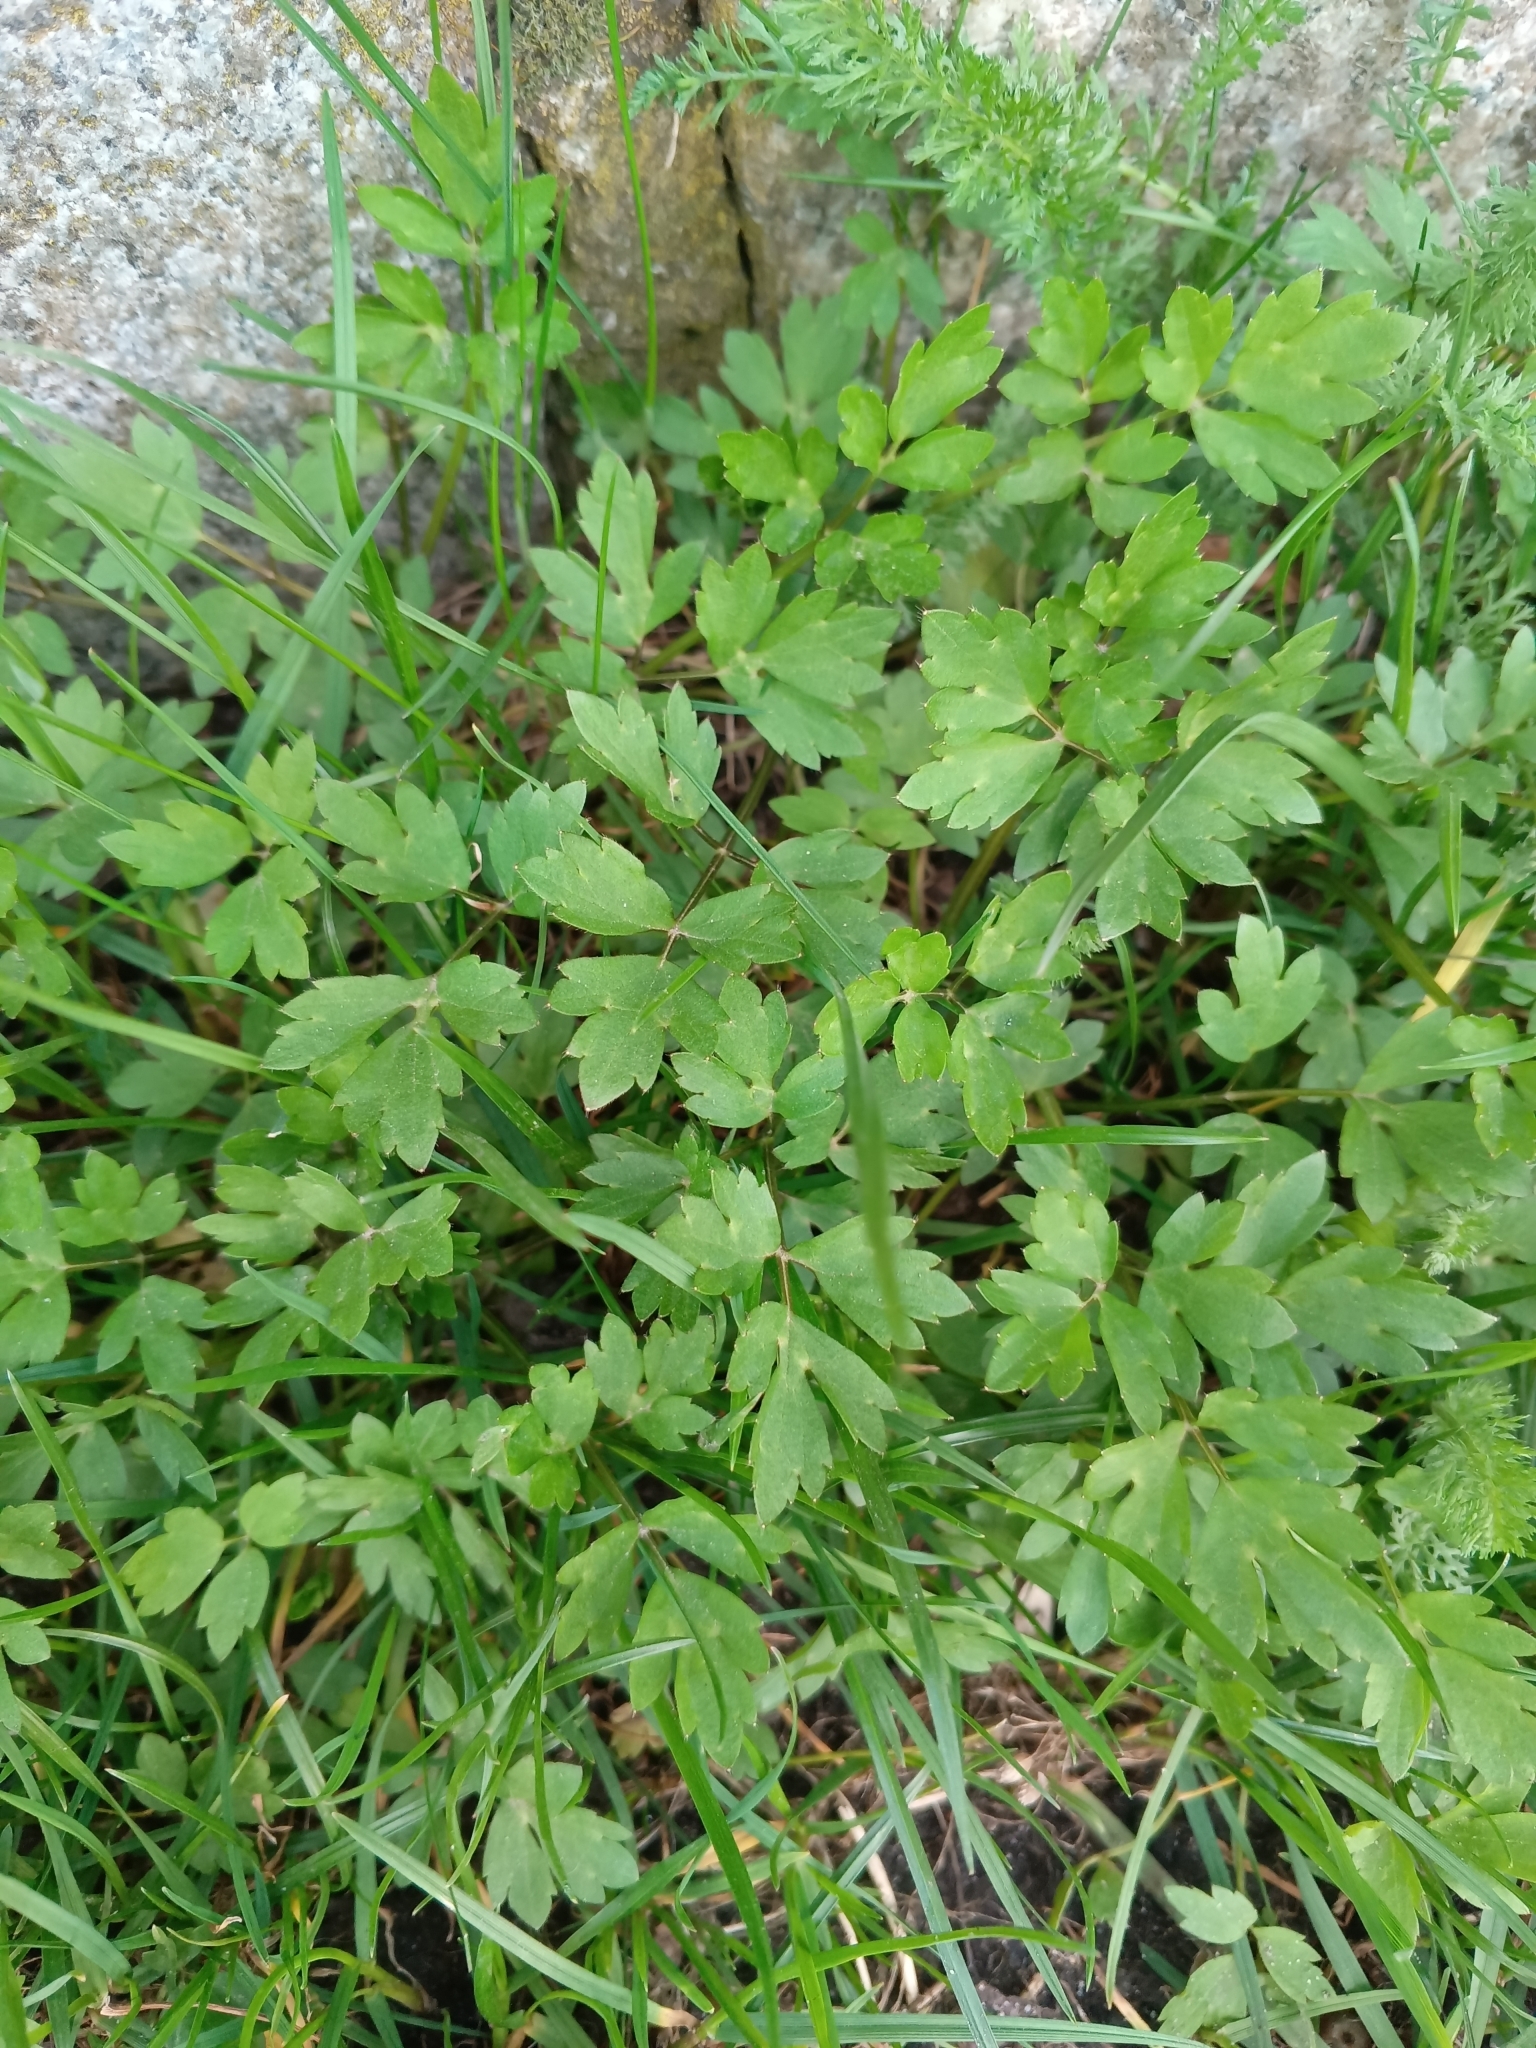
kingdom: Plantae
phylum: Tracheophyta
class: Magnoliopsida
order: Ranunculales
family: Ranunculaceae
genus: Ranunculus
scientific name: Ranunculus repens
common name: Creeping buttercup
